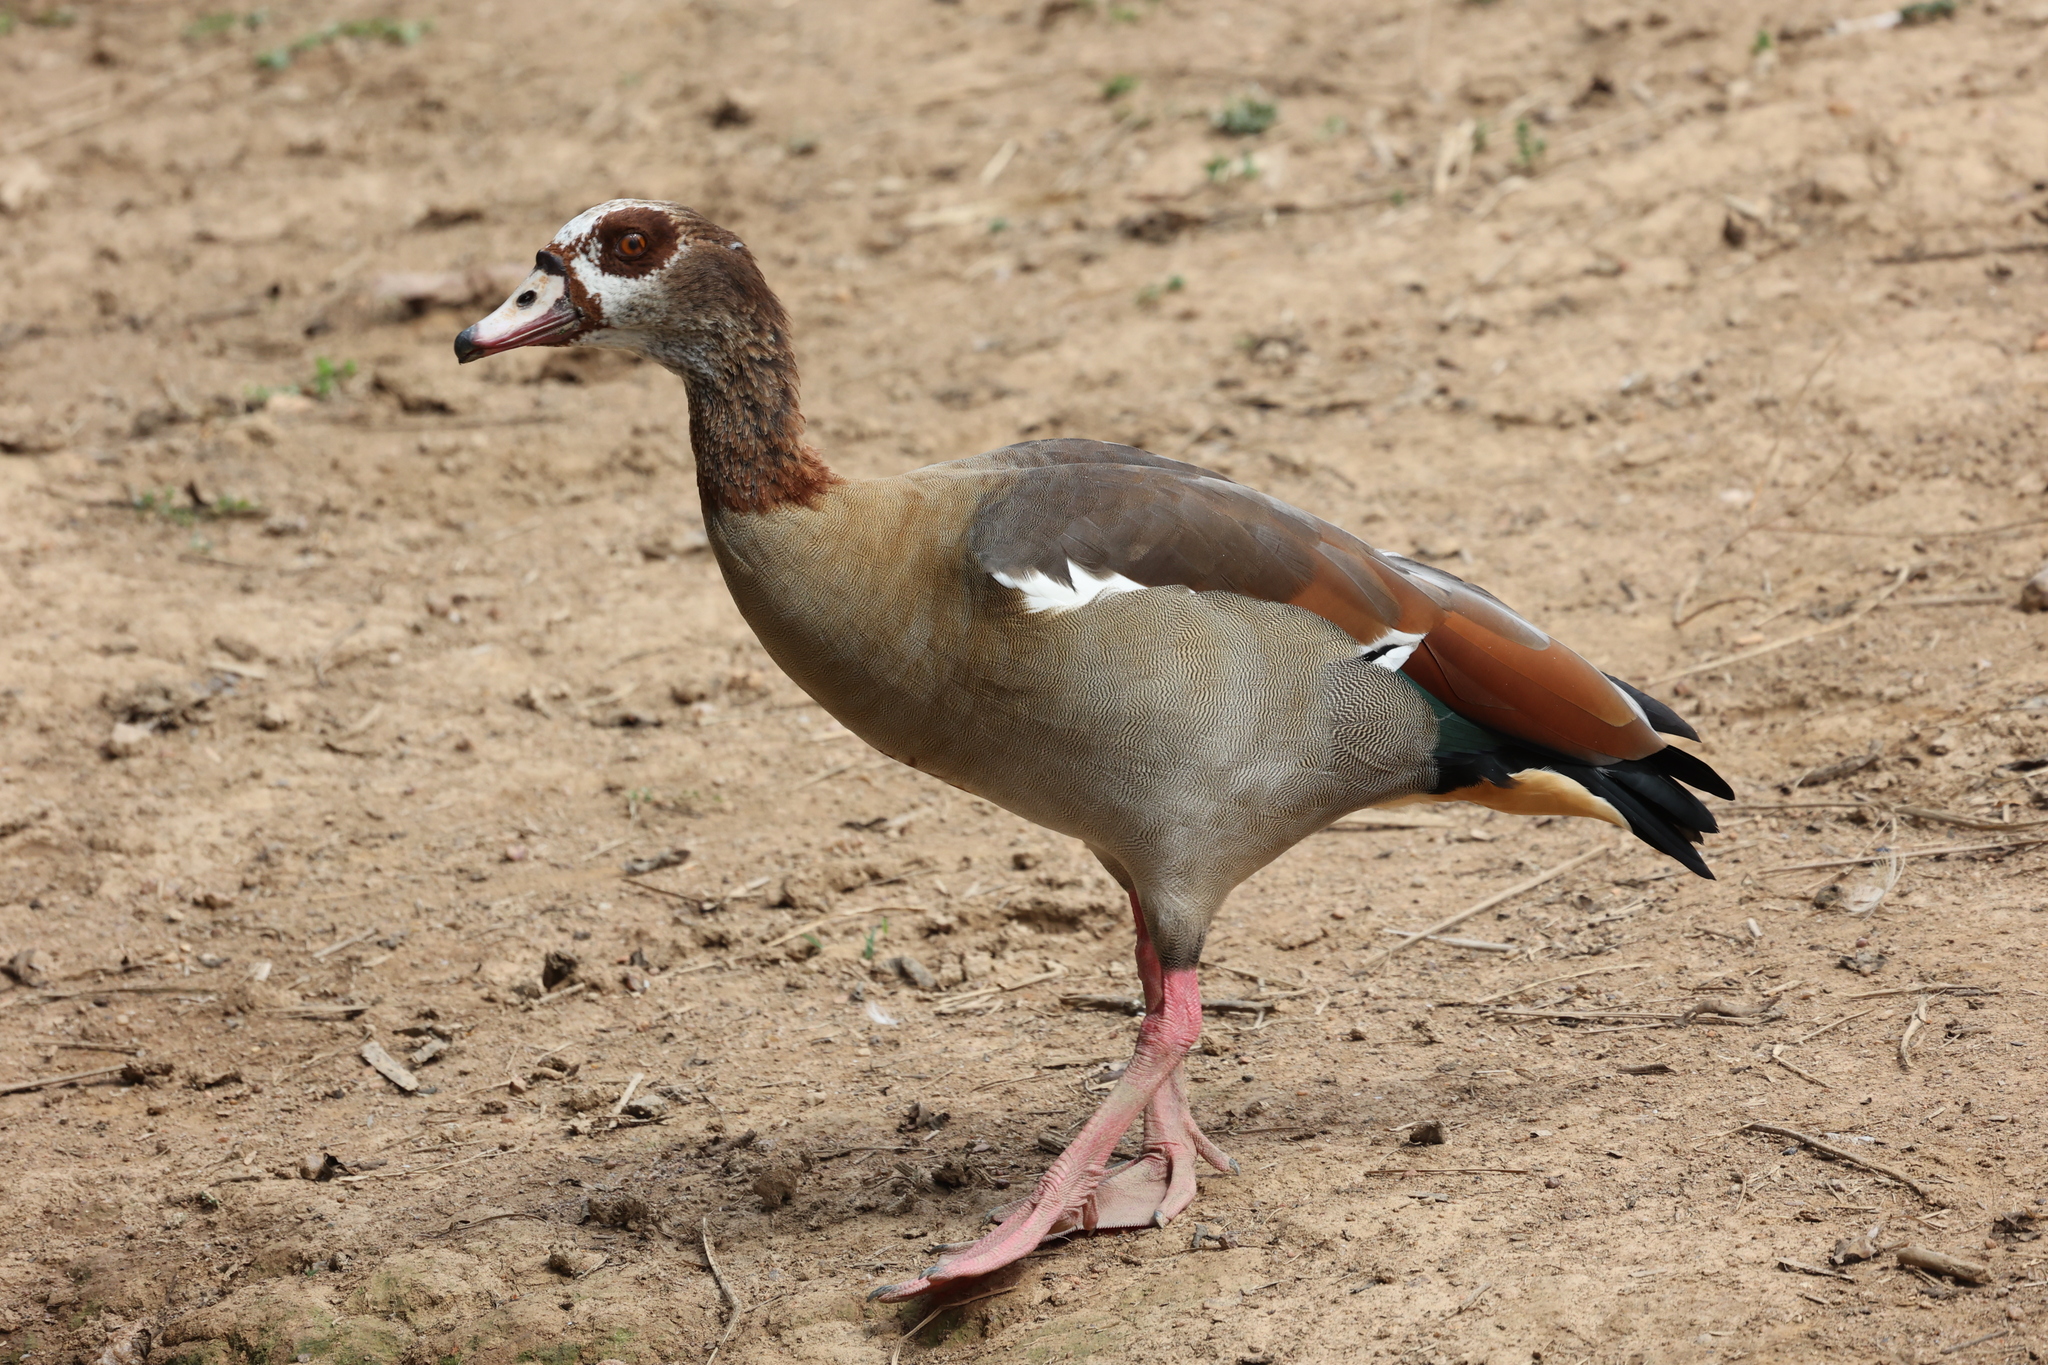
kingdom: Animalia
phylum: Chordata
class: Aves
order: Anseriformes
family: Anatidae
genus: Alopochen
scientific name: Alopochen aegyptiaca
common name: Egyptian goose
